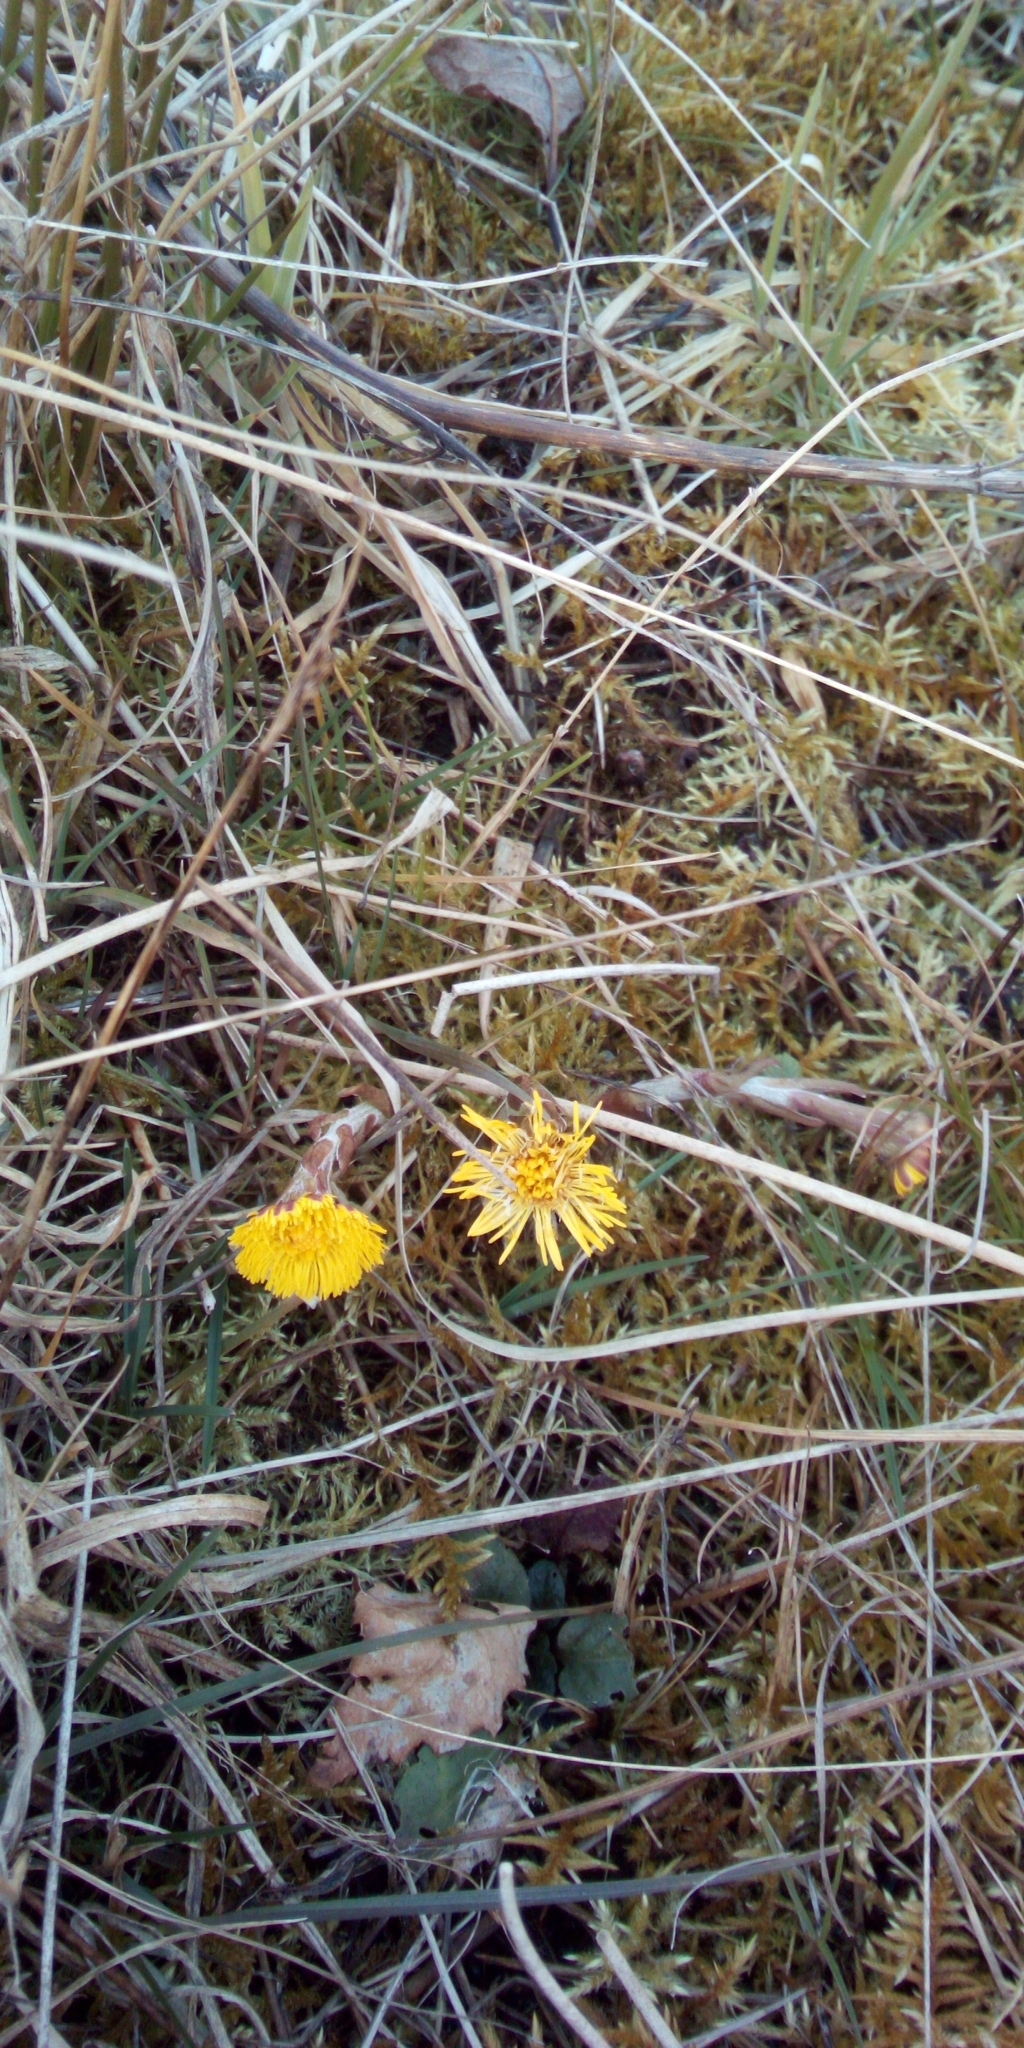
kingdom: Plantae
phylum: Tracheophyta
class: Magnoliopsida
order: Asterales
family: Asteraceae
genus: Tussilago
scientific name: Tussilago farfara
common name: Coltsfoot
